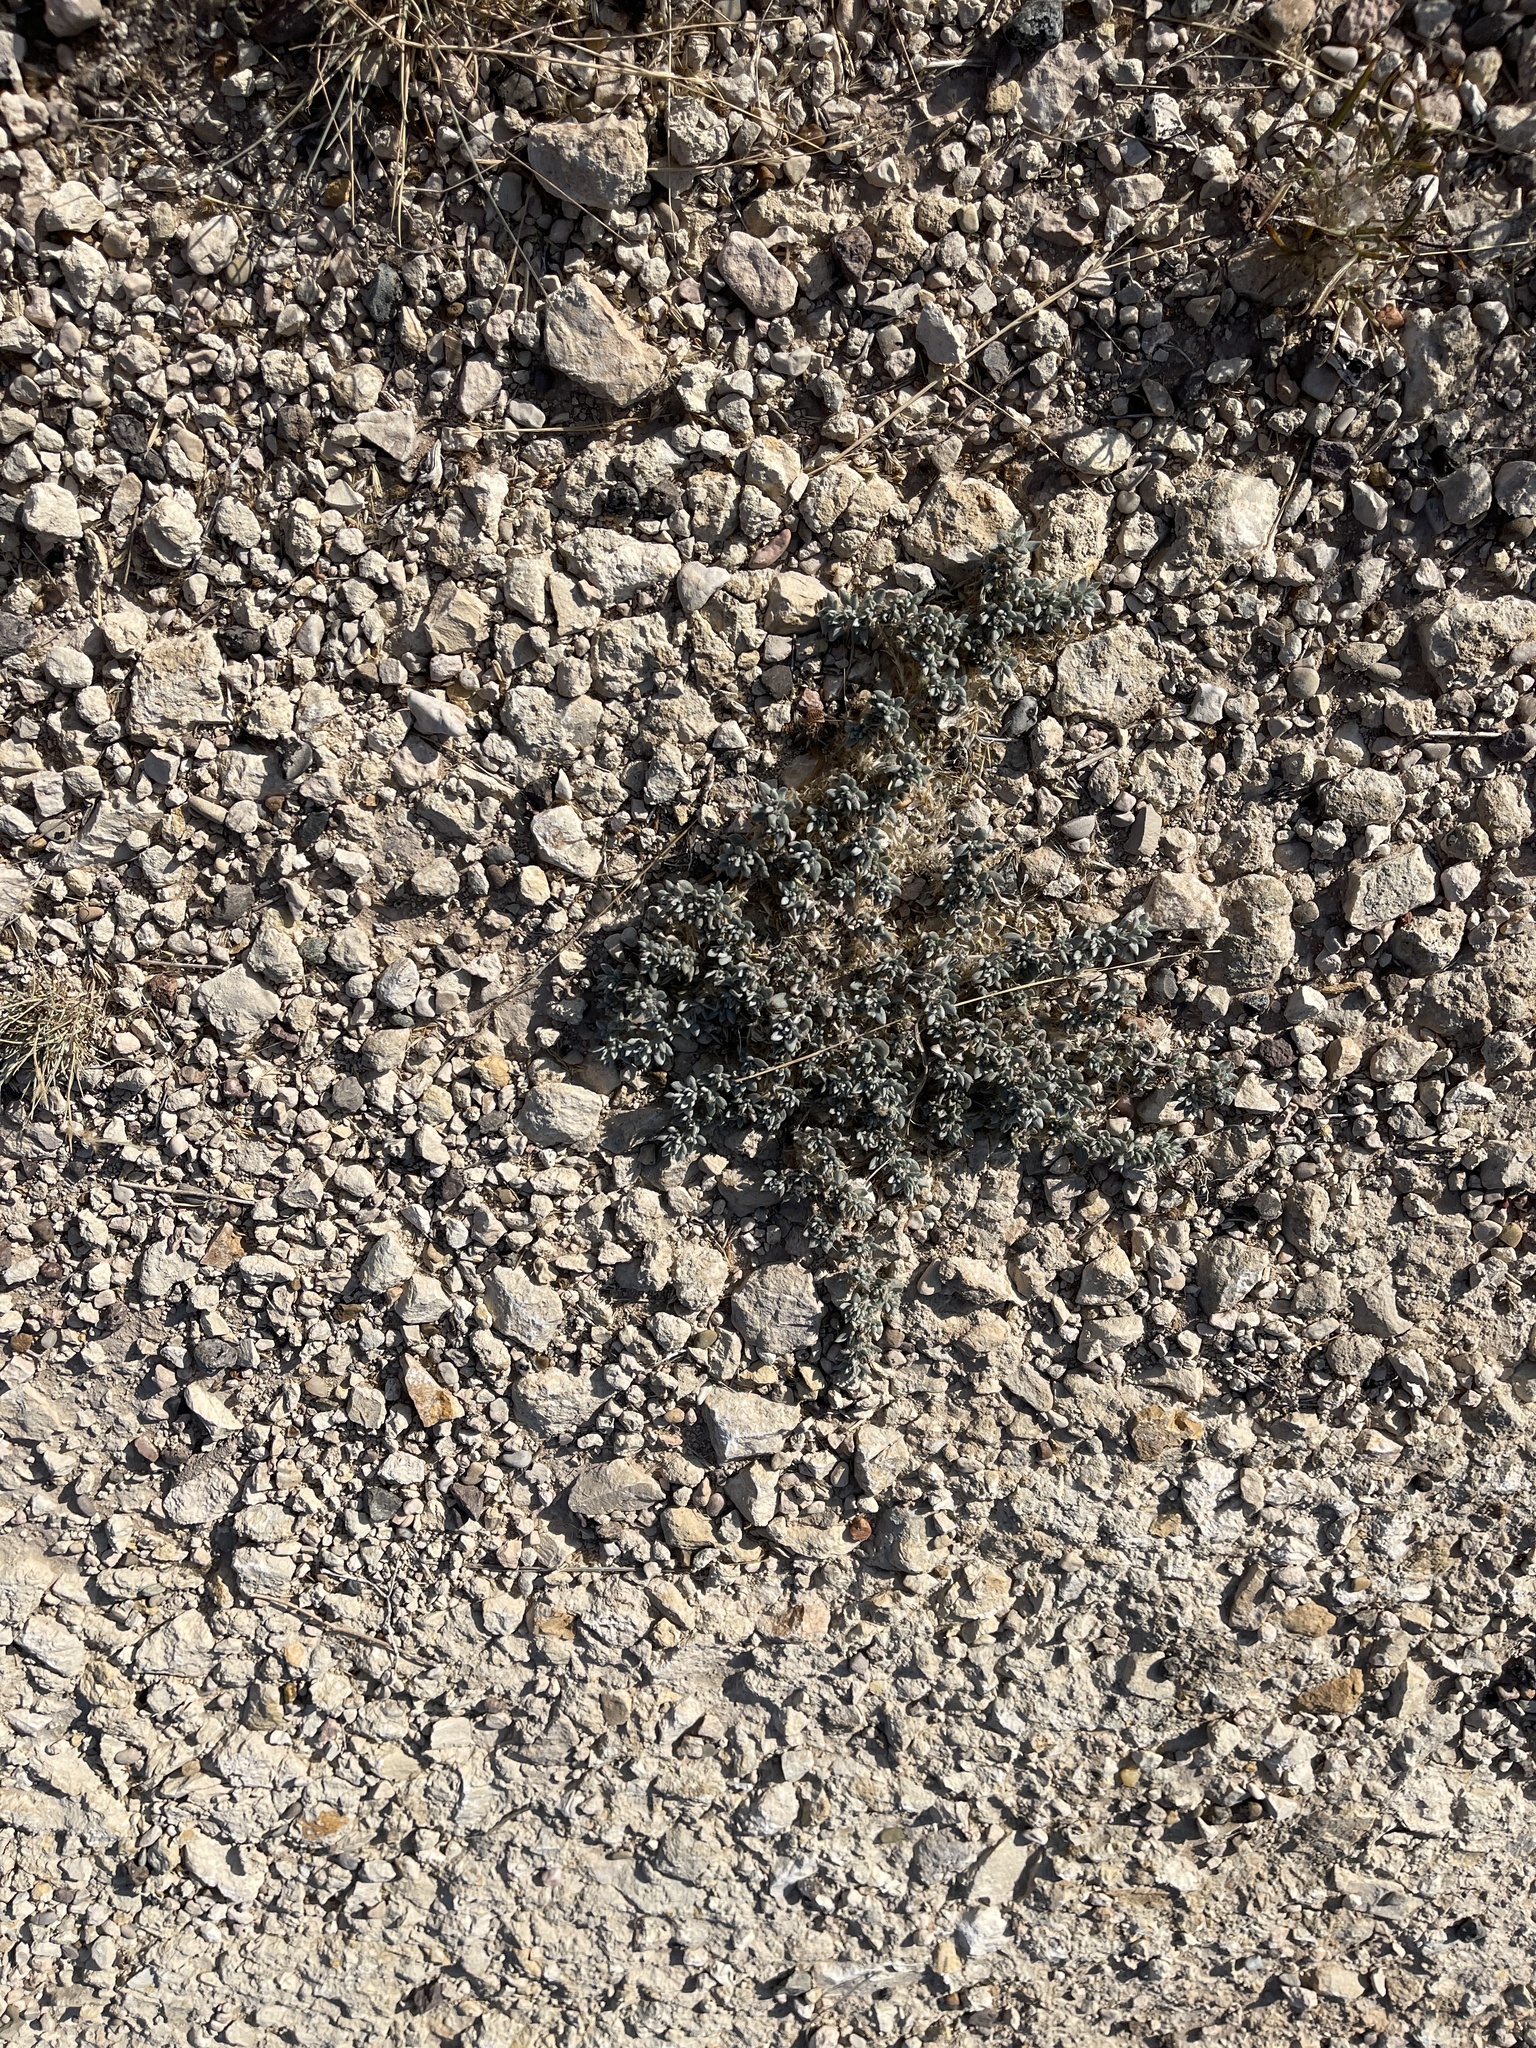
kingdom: Plantae
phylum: Tracheophyta
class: Magnoliopsida
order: Boraginales
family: Ehretiaceae
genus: Tiquilia
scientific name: Tiquilia canescens
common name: Hairy tiquilia
